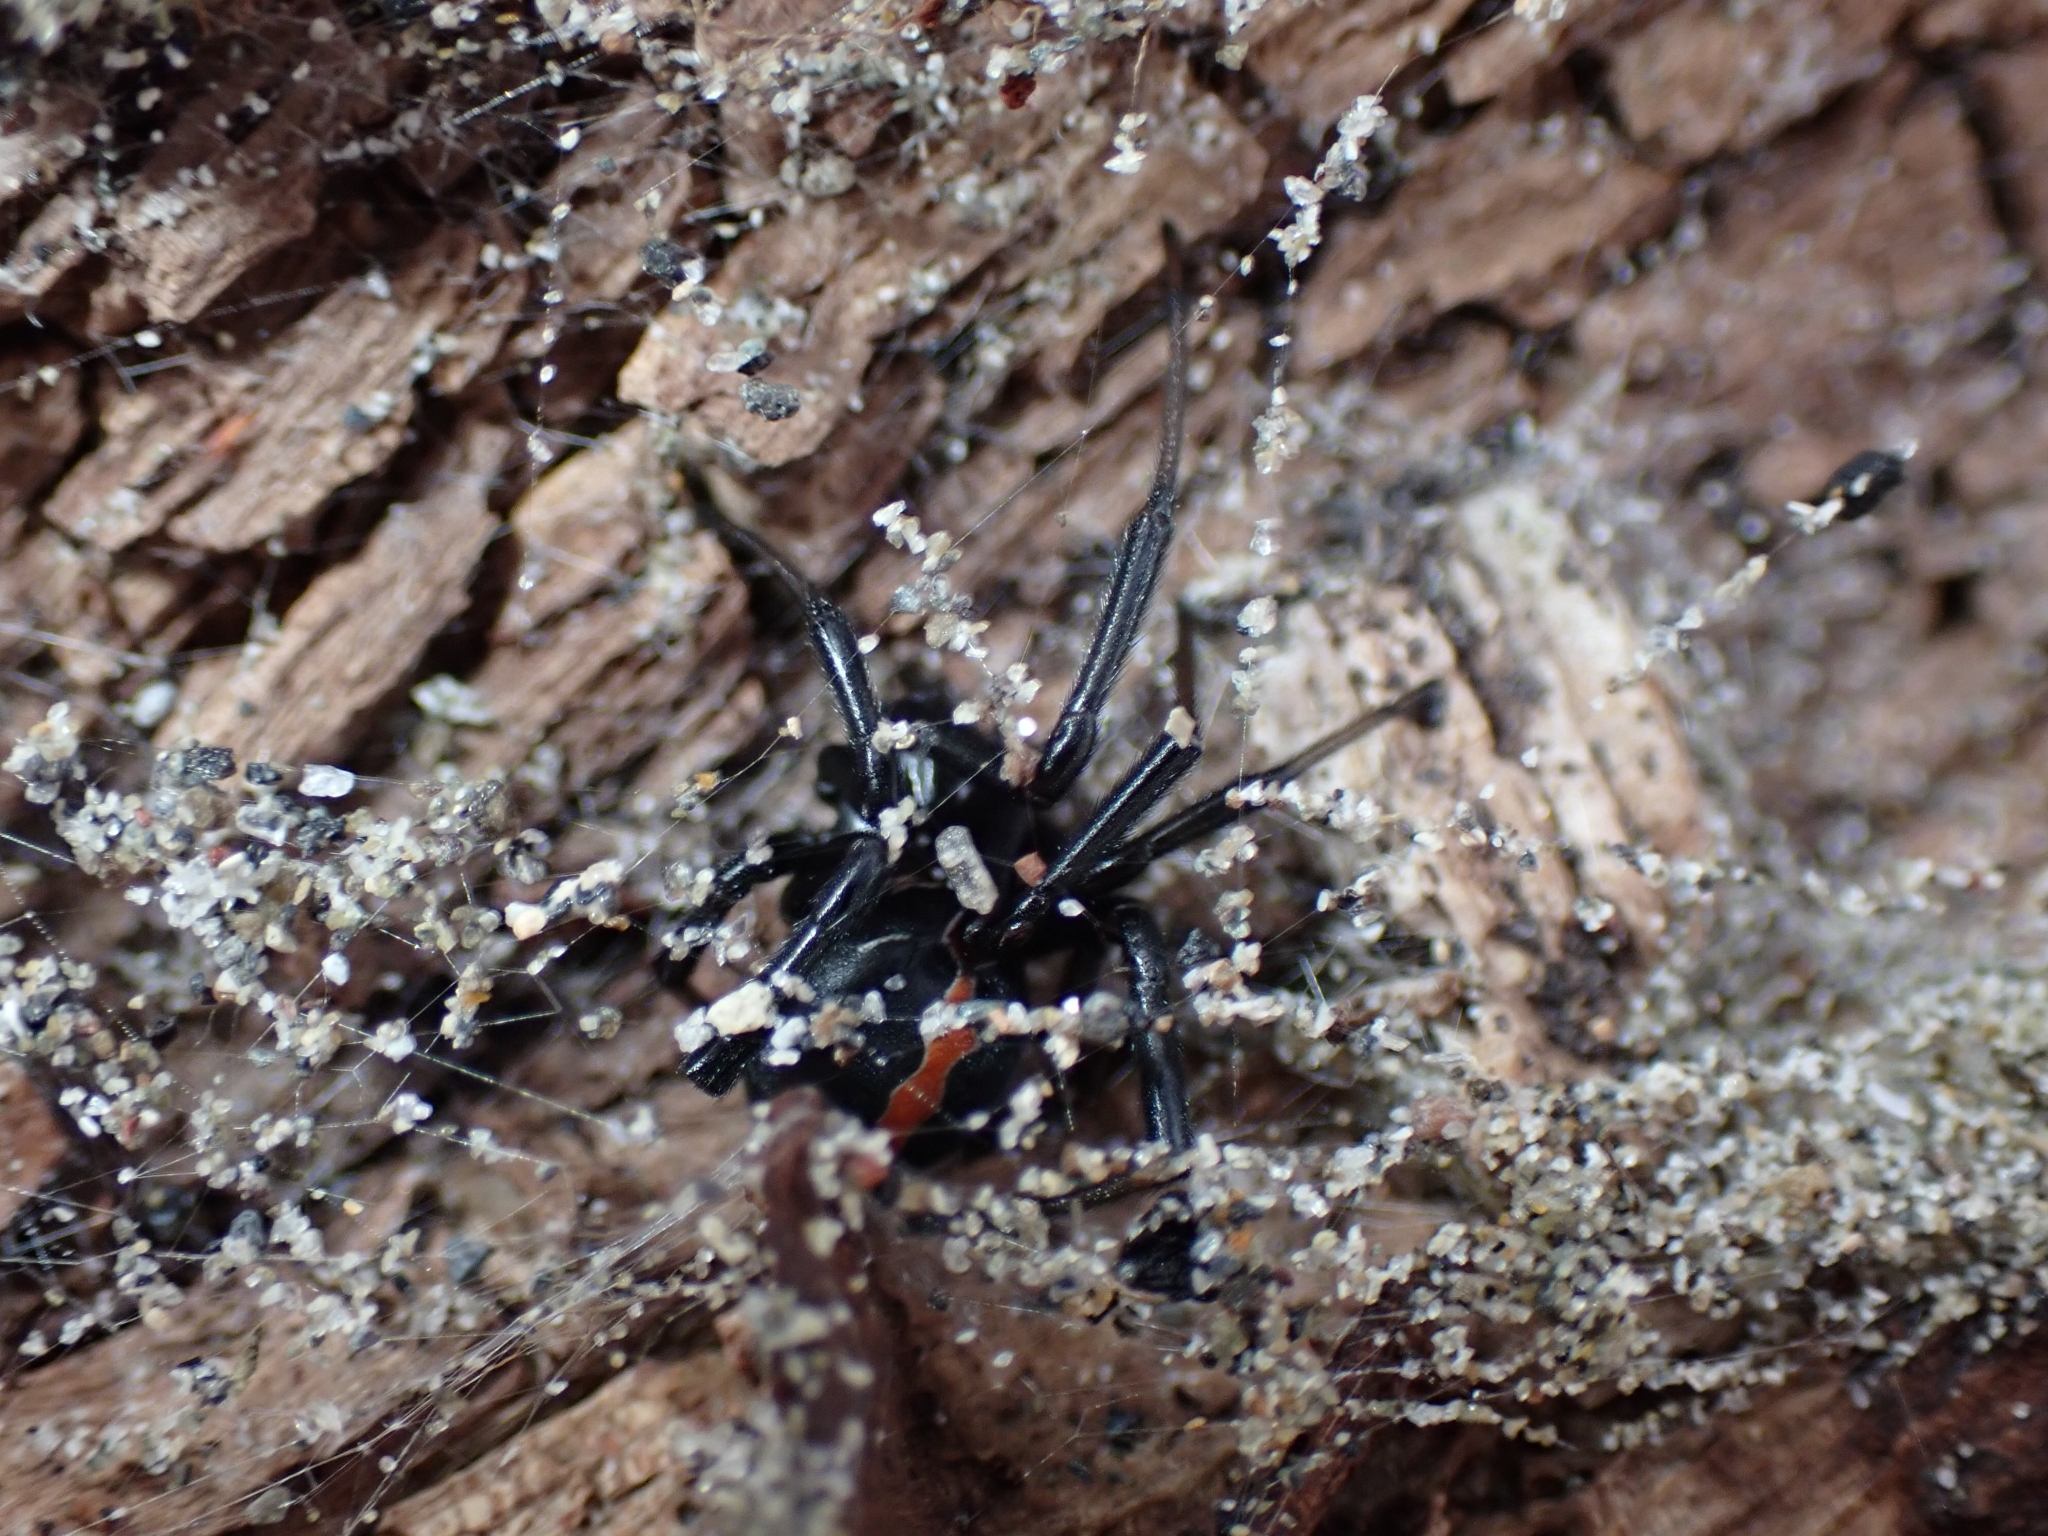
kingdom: Animalia
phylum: Arthropoda
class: Arachnida
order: Araneae
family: Theridiidae
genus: Latrodectus
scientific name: Latrodectus katipo
